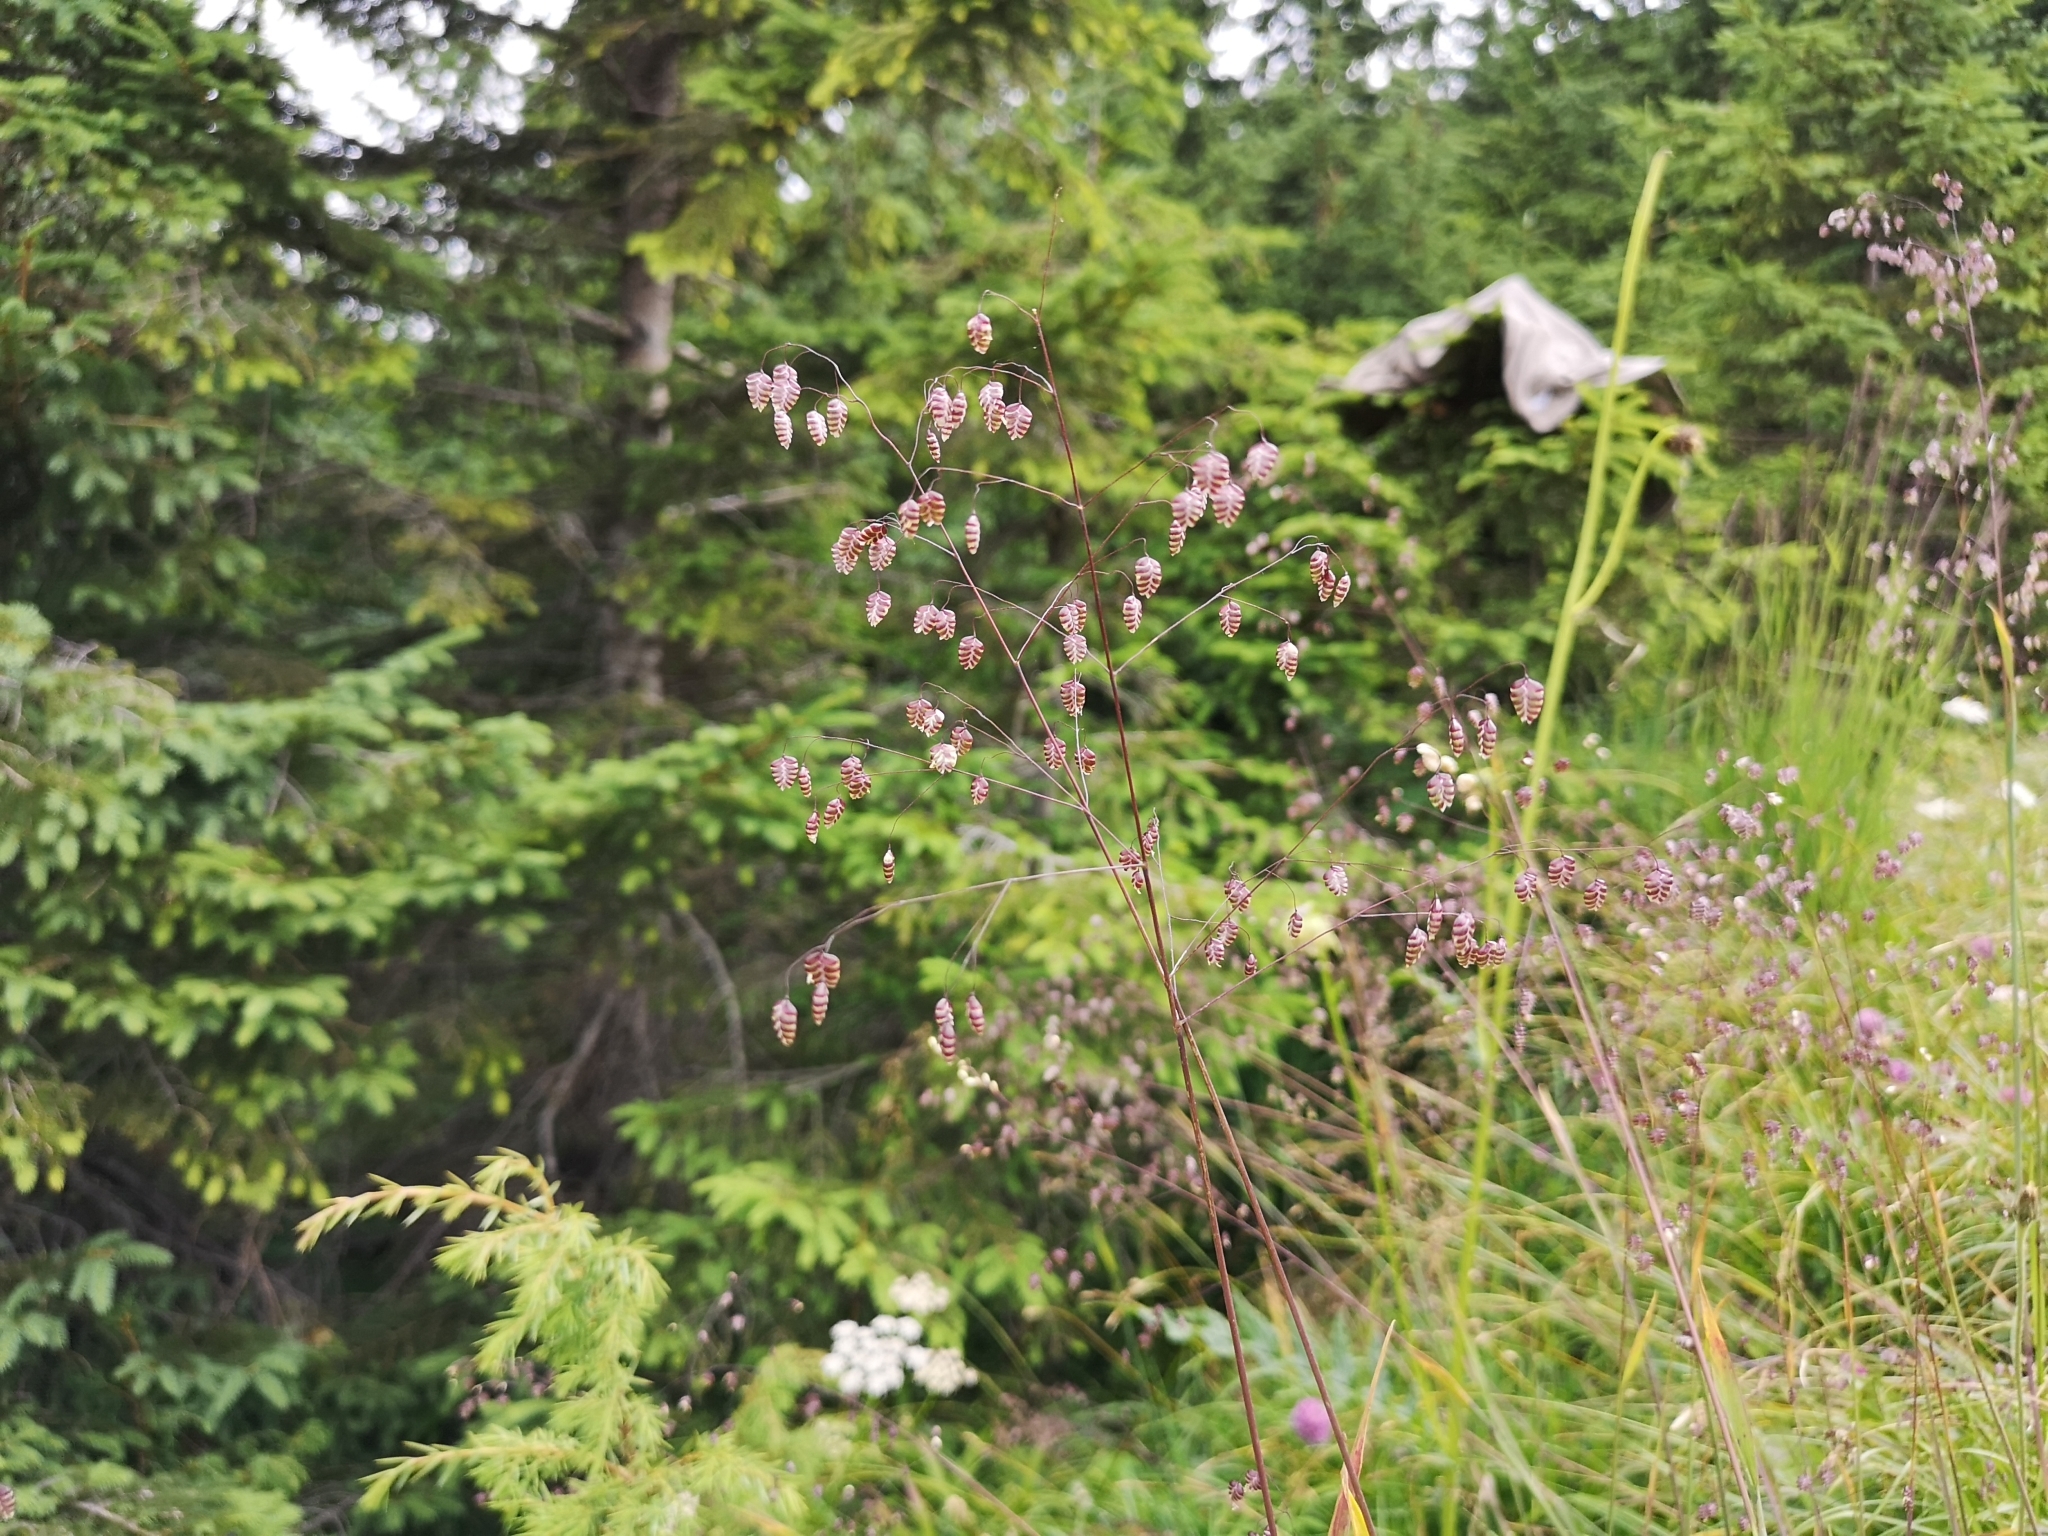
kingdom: Plantae
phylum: Tracheophyta
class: Liliopsida
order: Poales
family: Poaceae
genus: Briza
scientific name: Briza media
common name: Quaking grass
